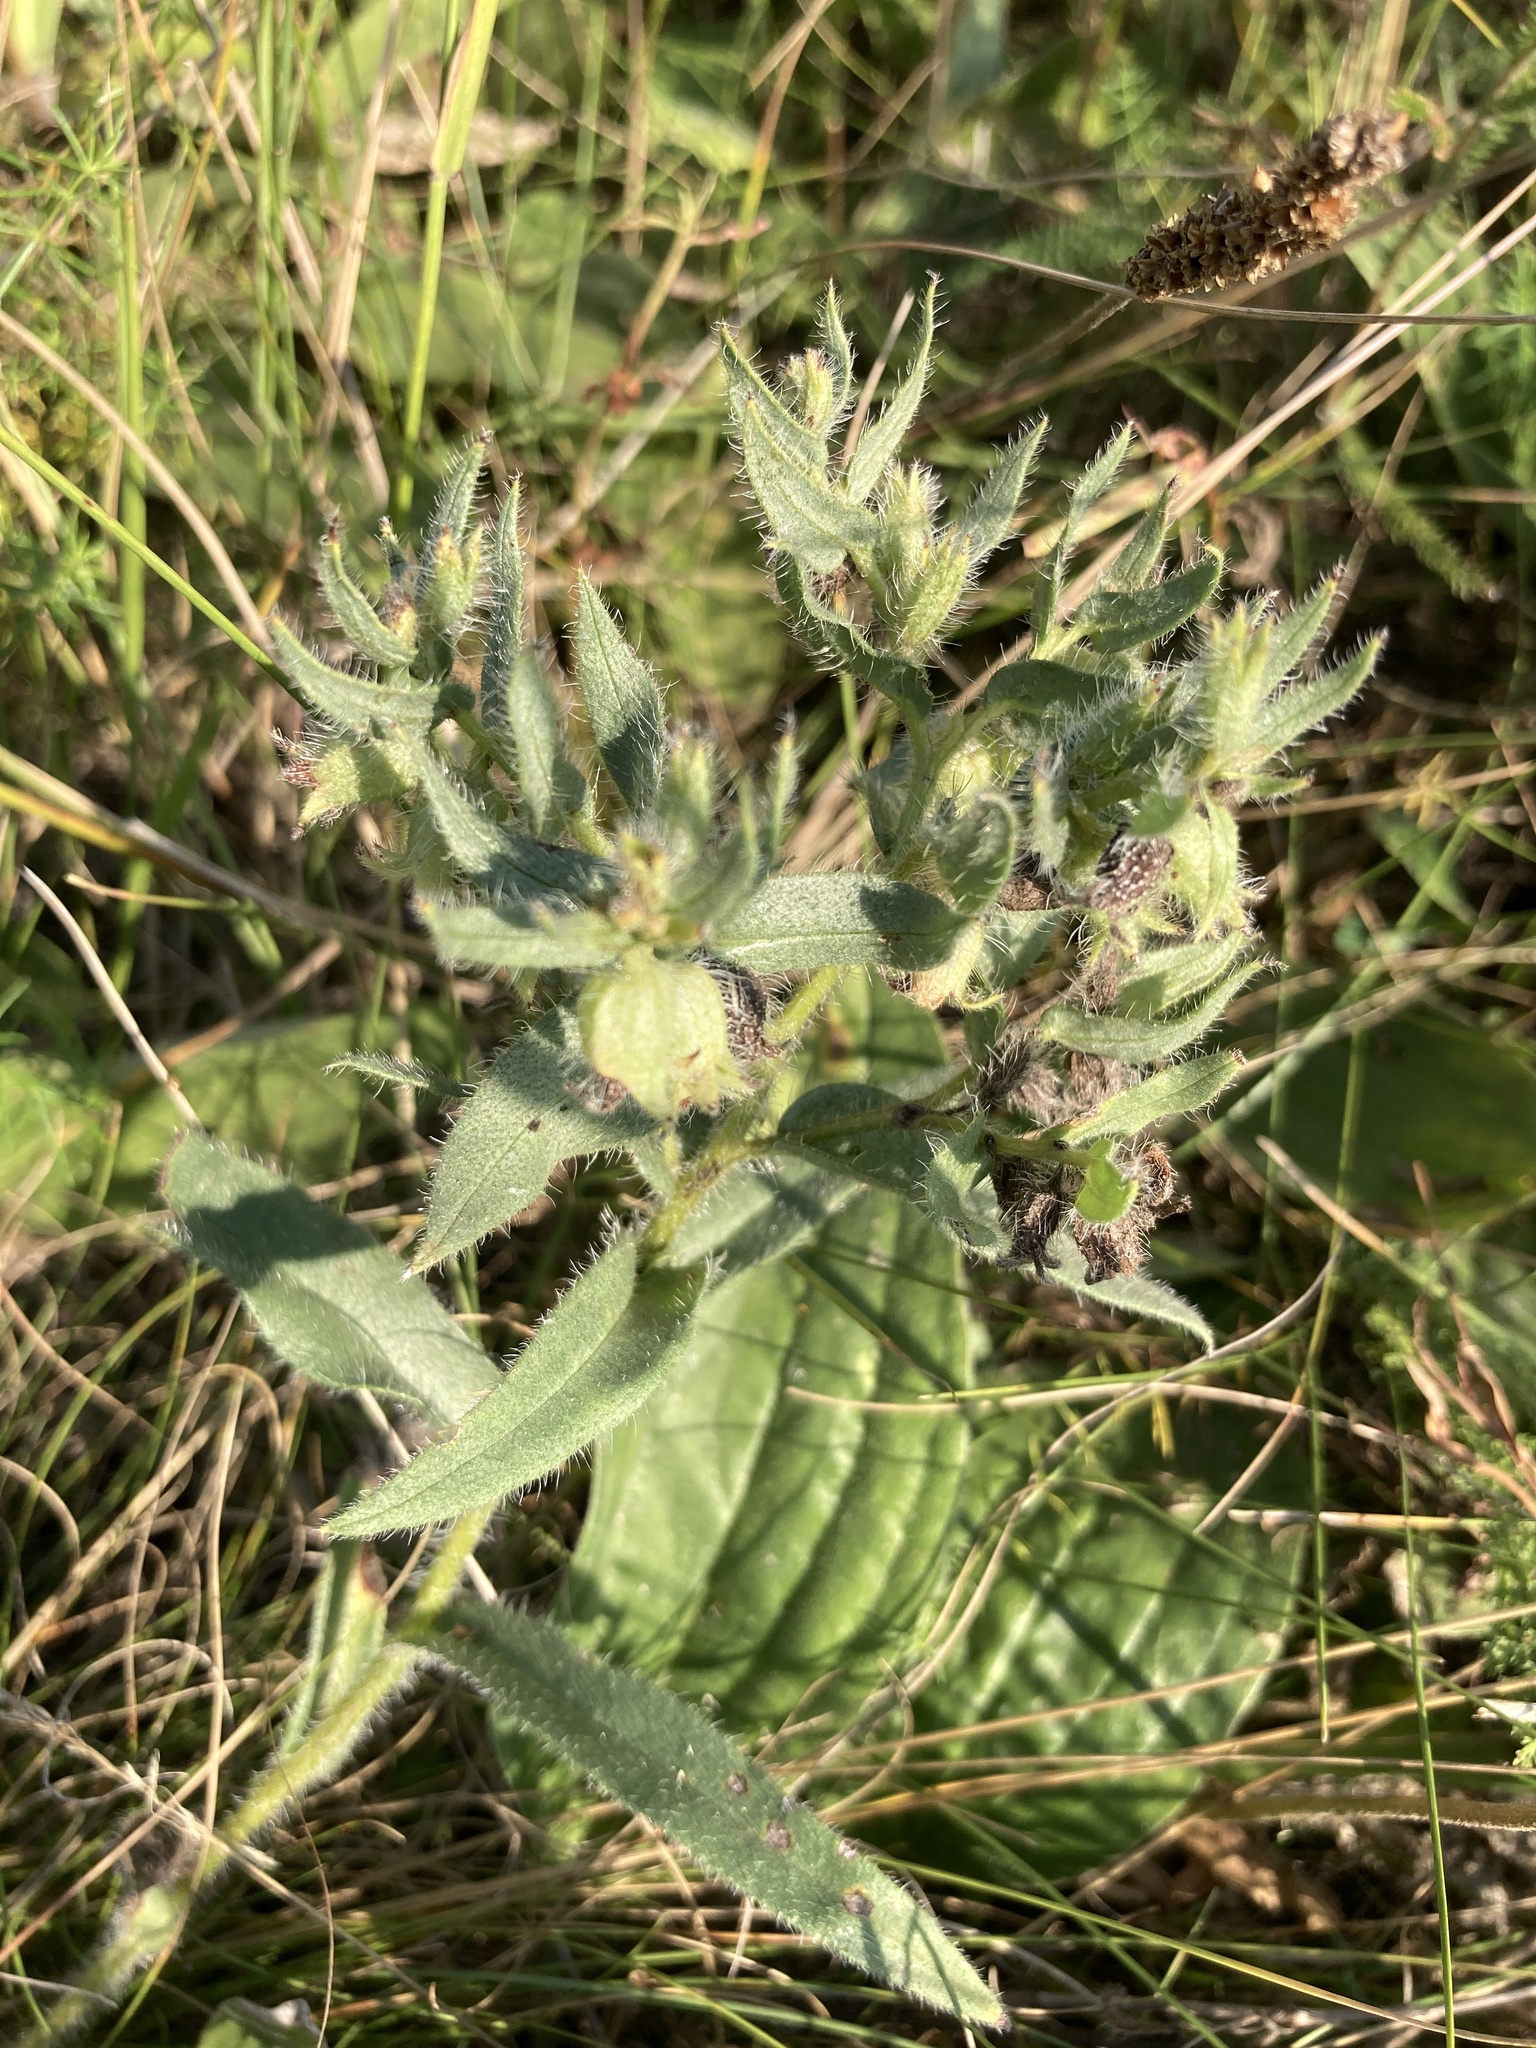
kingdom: Plantae
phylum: Tracheophyta
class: Magnoliopsida
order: Boraginales
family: Boraginaceae
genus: Nonea
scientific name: Nonea pulla
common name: Brown nonea
